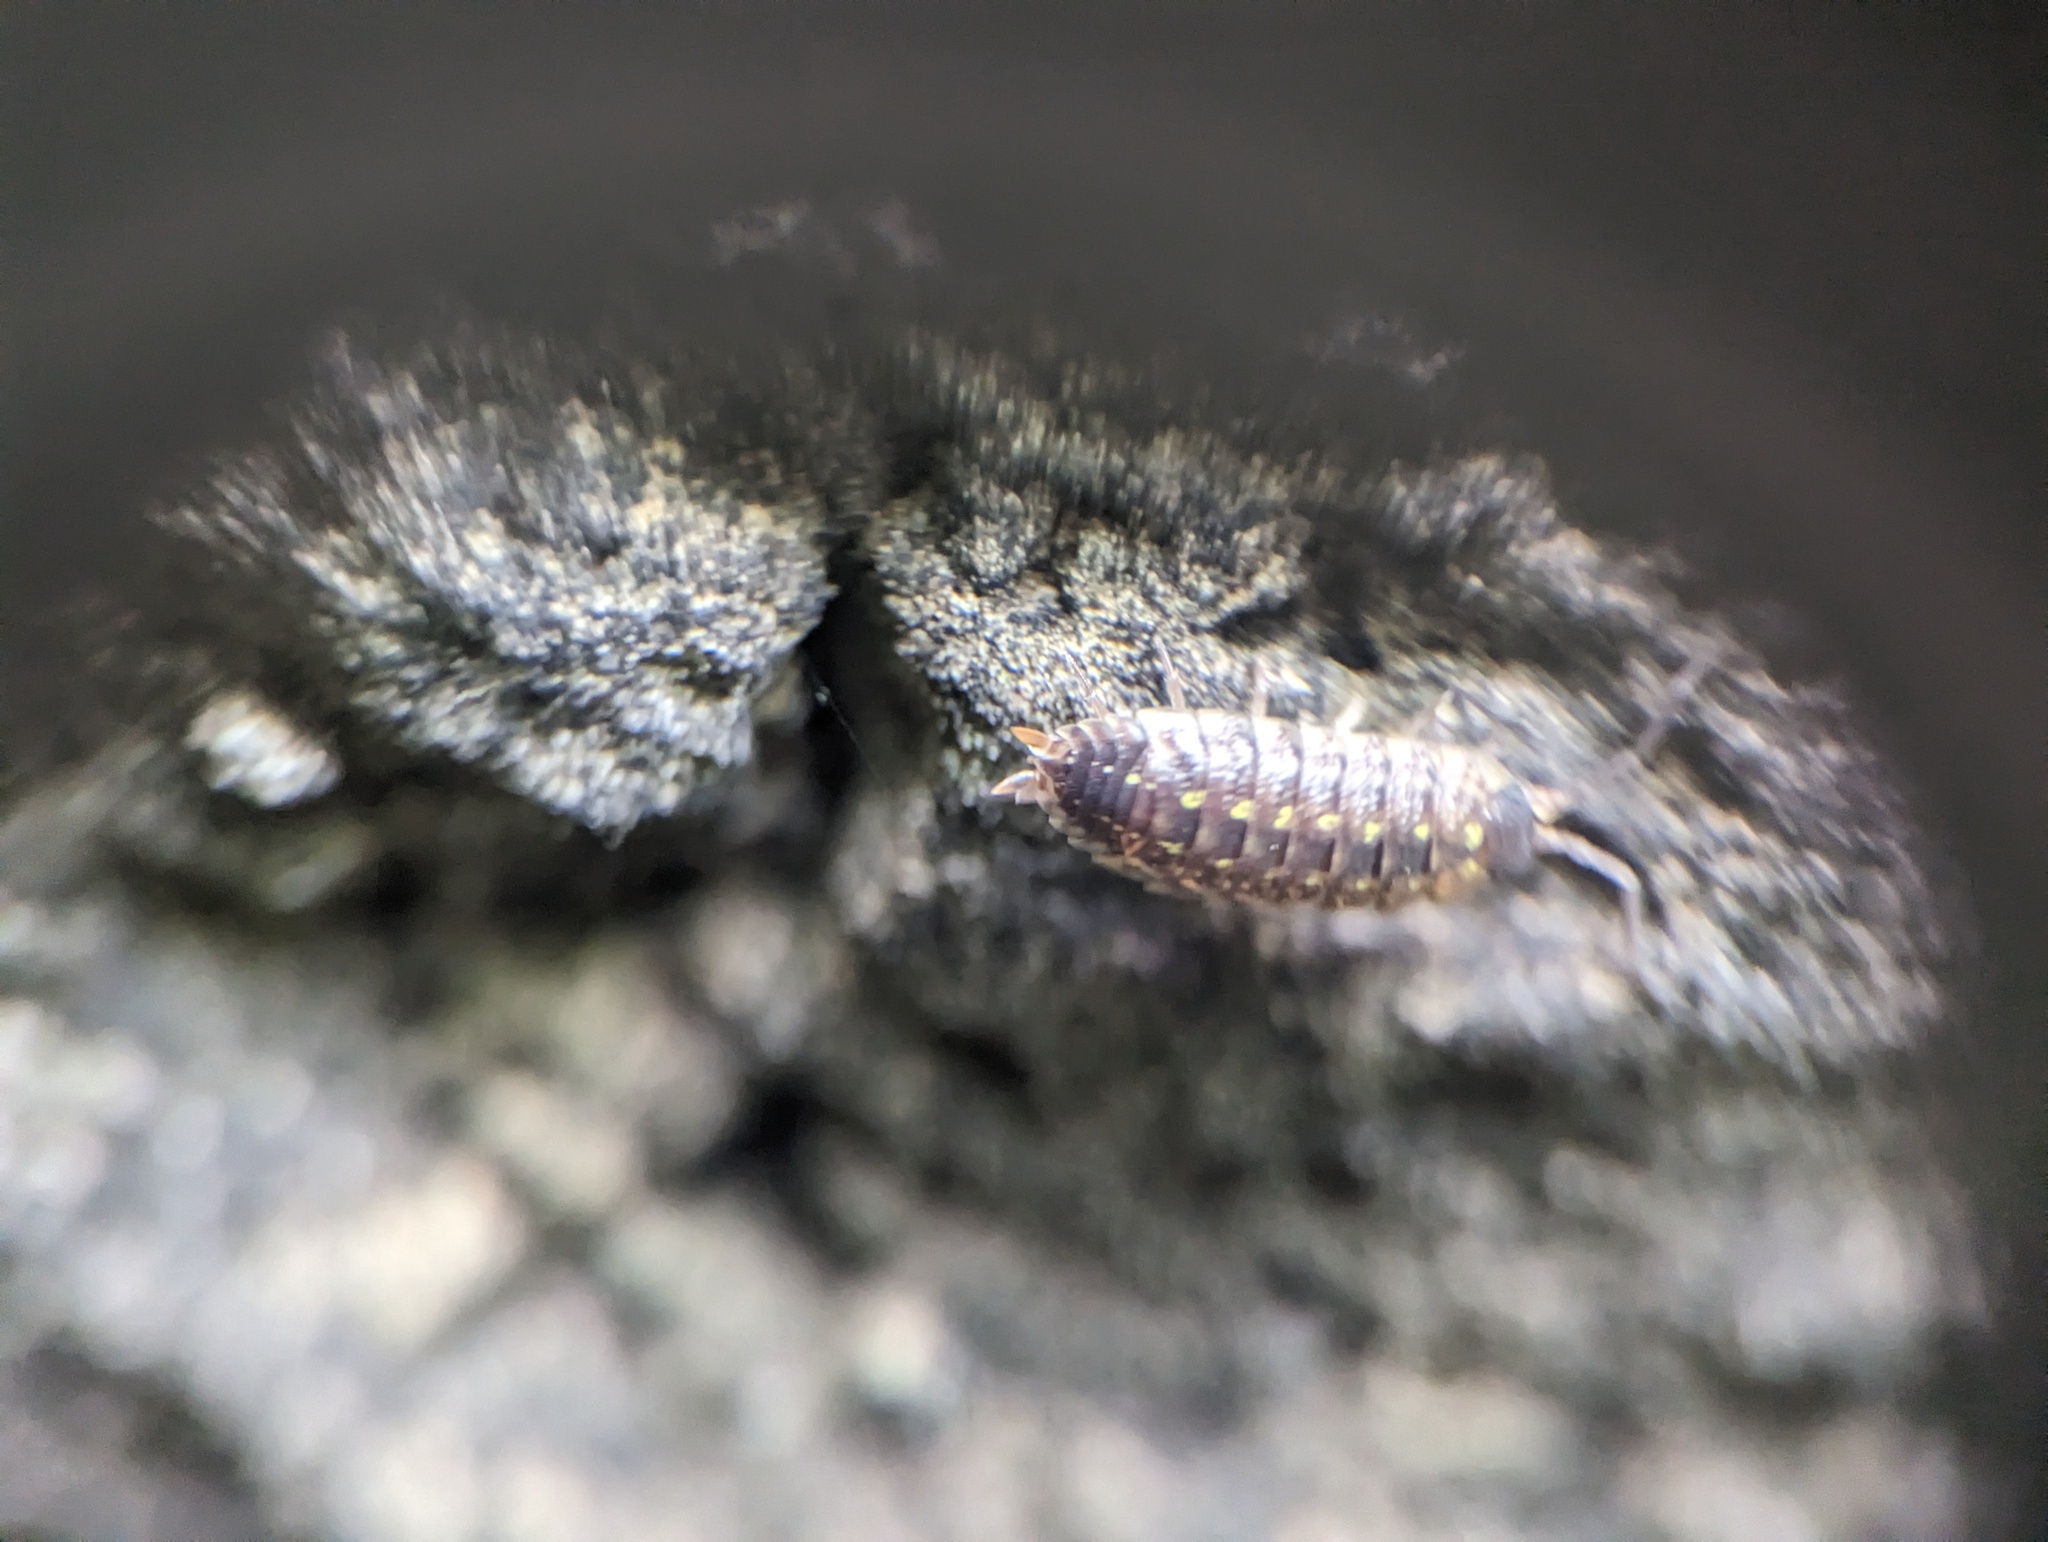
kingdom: Animalia
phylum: Arthropoda
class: Malacostraca
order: Isopoda
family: Porcellionidae
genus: Porcellio
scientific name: Porcellio spinicornis
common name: Painted woodlouse
